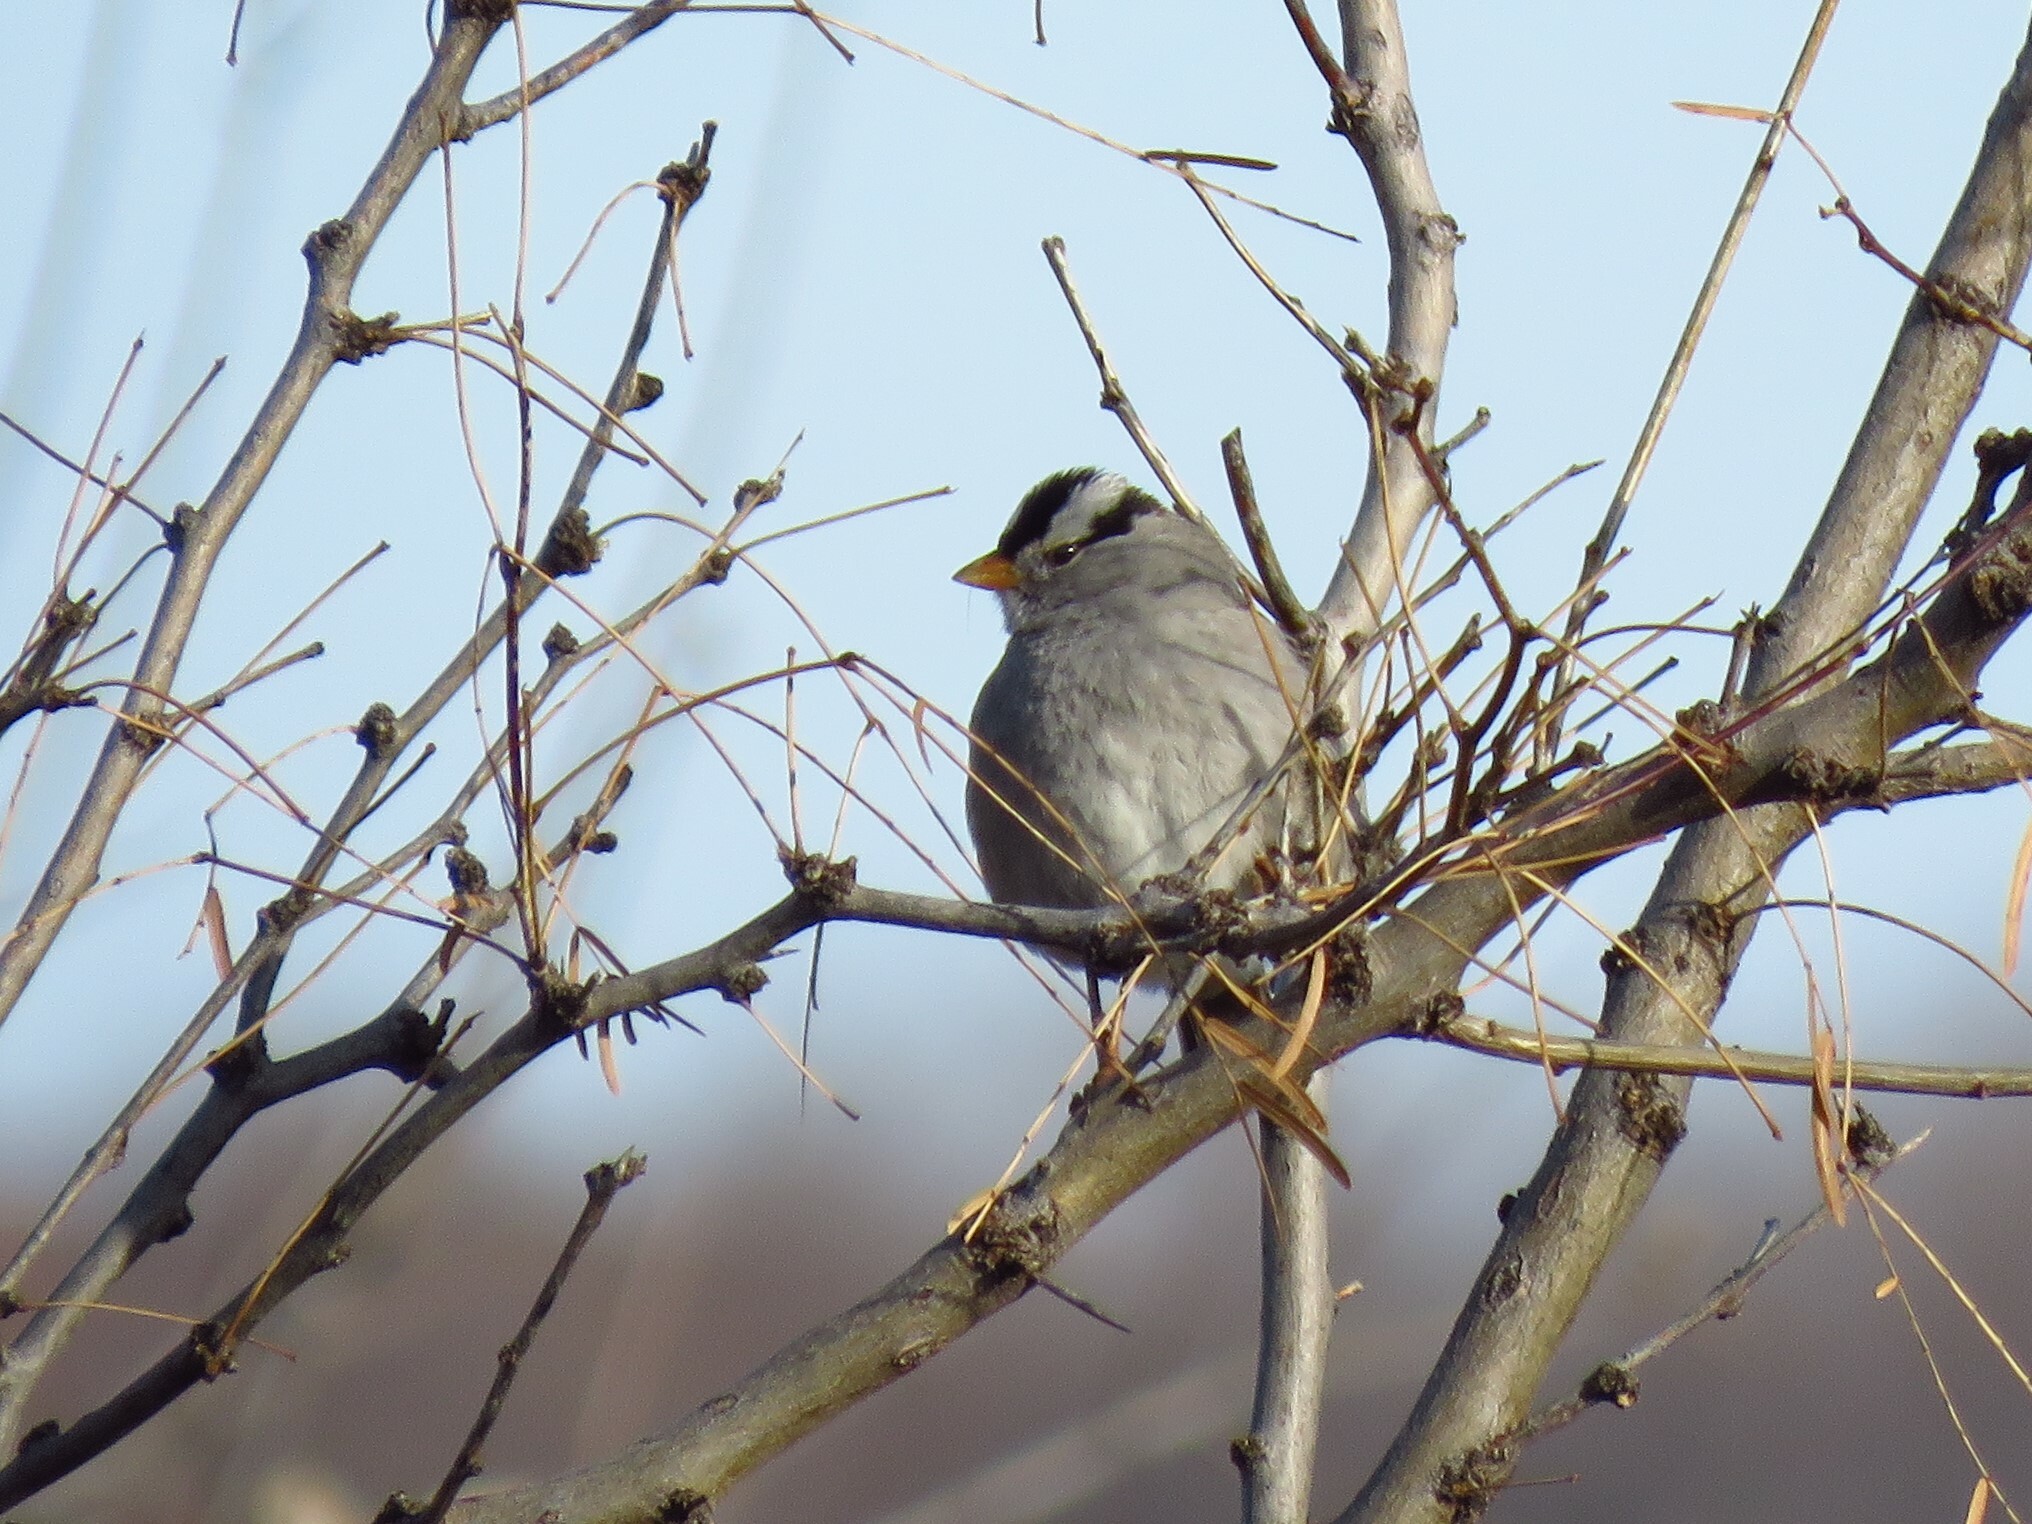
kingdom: Animalia
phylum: Chordata
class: Aves
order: Passeriformes
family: Passerellidae
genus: Zonotrichia
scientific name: Zonotrichia leucophrys
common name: White-crowned sparrow
